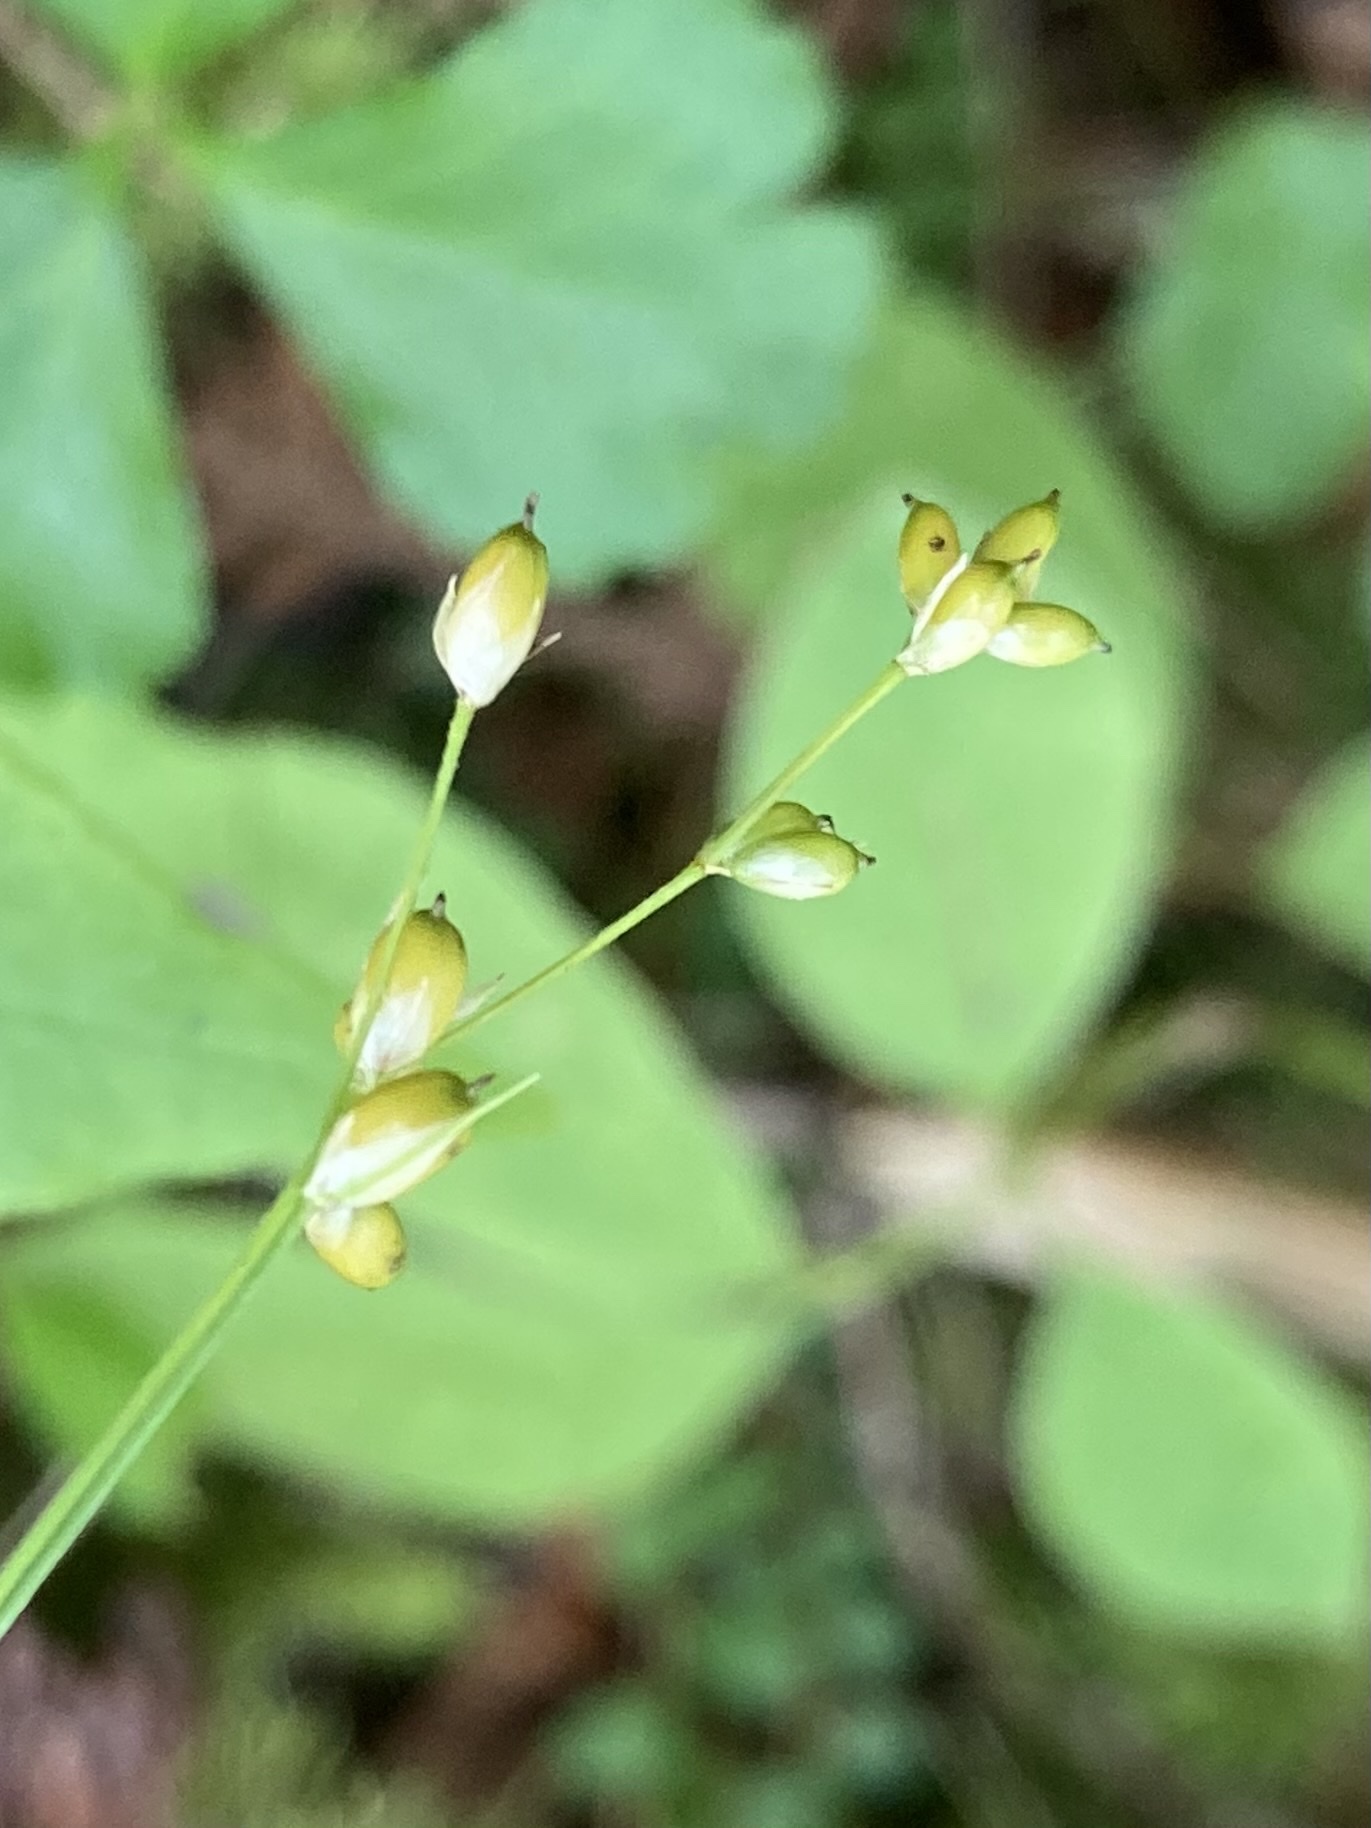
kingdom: Plantae
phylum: Tracheophyta
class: Liliopsida
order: Poales
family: Cyperaceae
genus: Carex
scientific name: Carex disperma
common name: Short-leaved sedge
